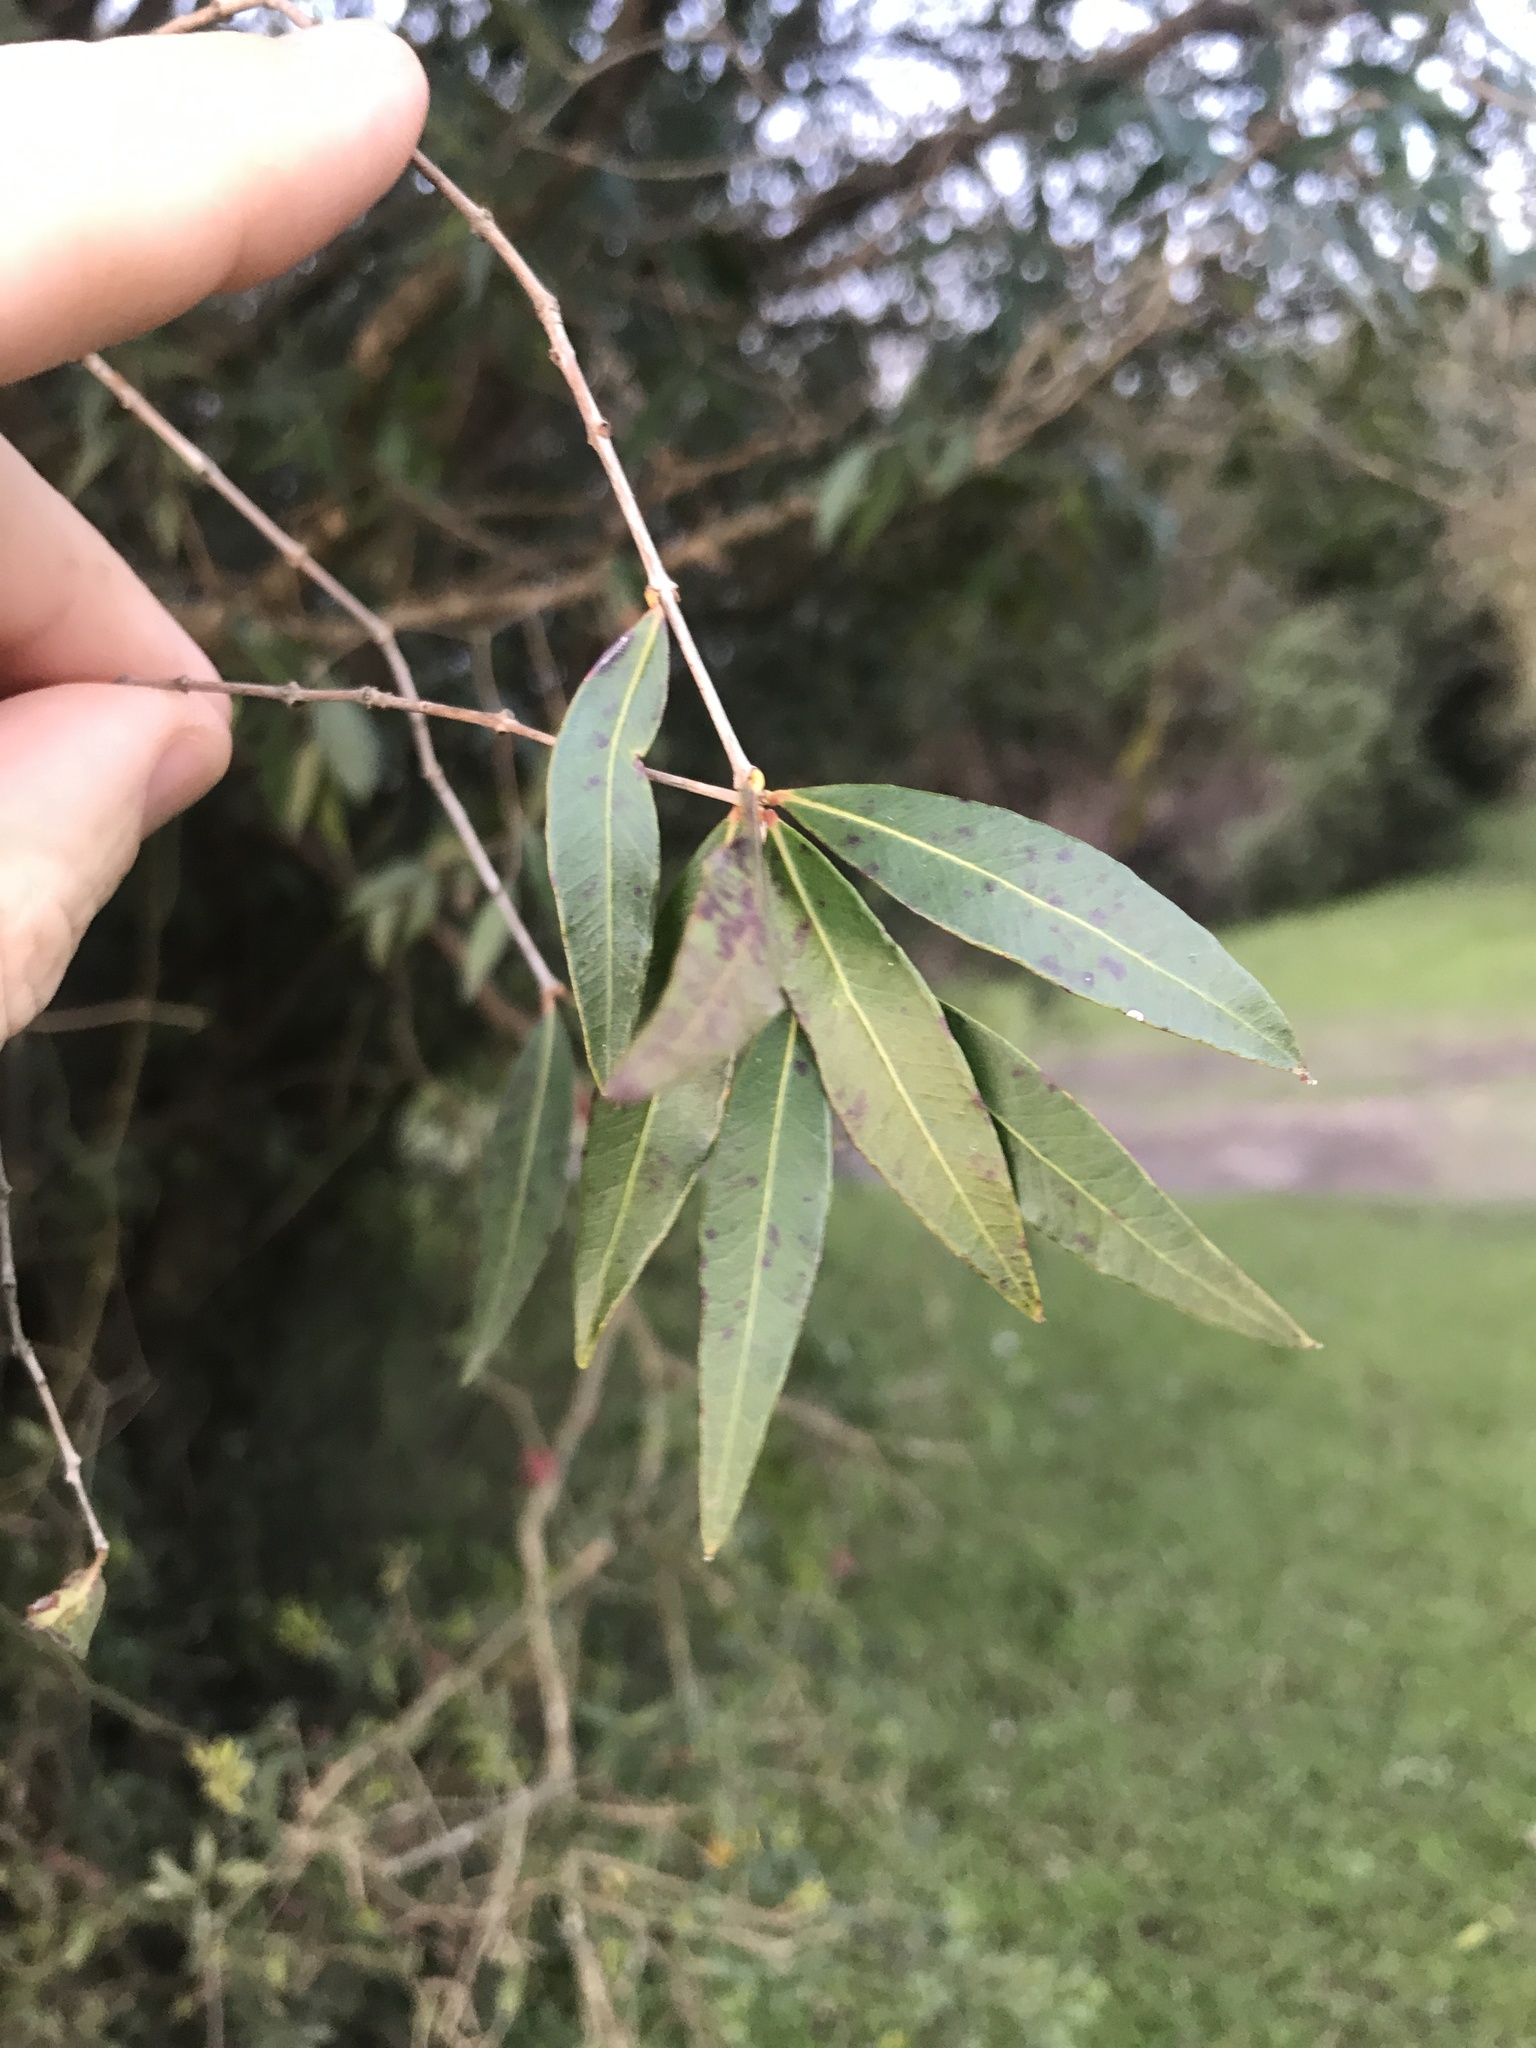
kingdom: Plantae
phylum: Tracheophyta
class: Magnoliopsida
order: Myrtales
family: Myrtaceae
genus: Blepharocalyx
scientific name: Blepharocalyx salicifolius
